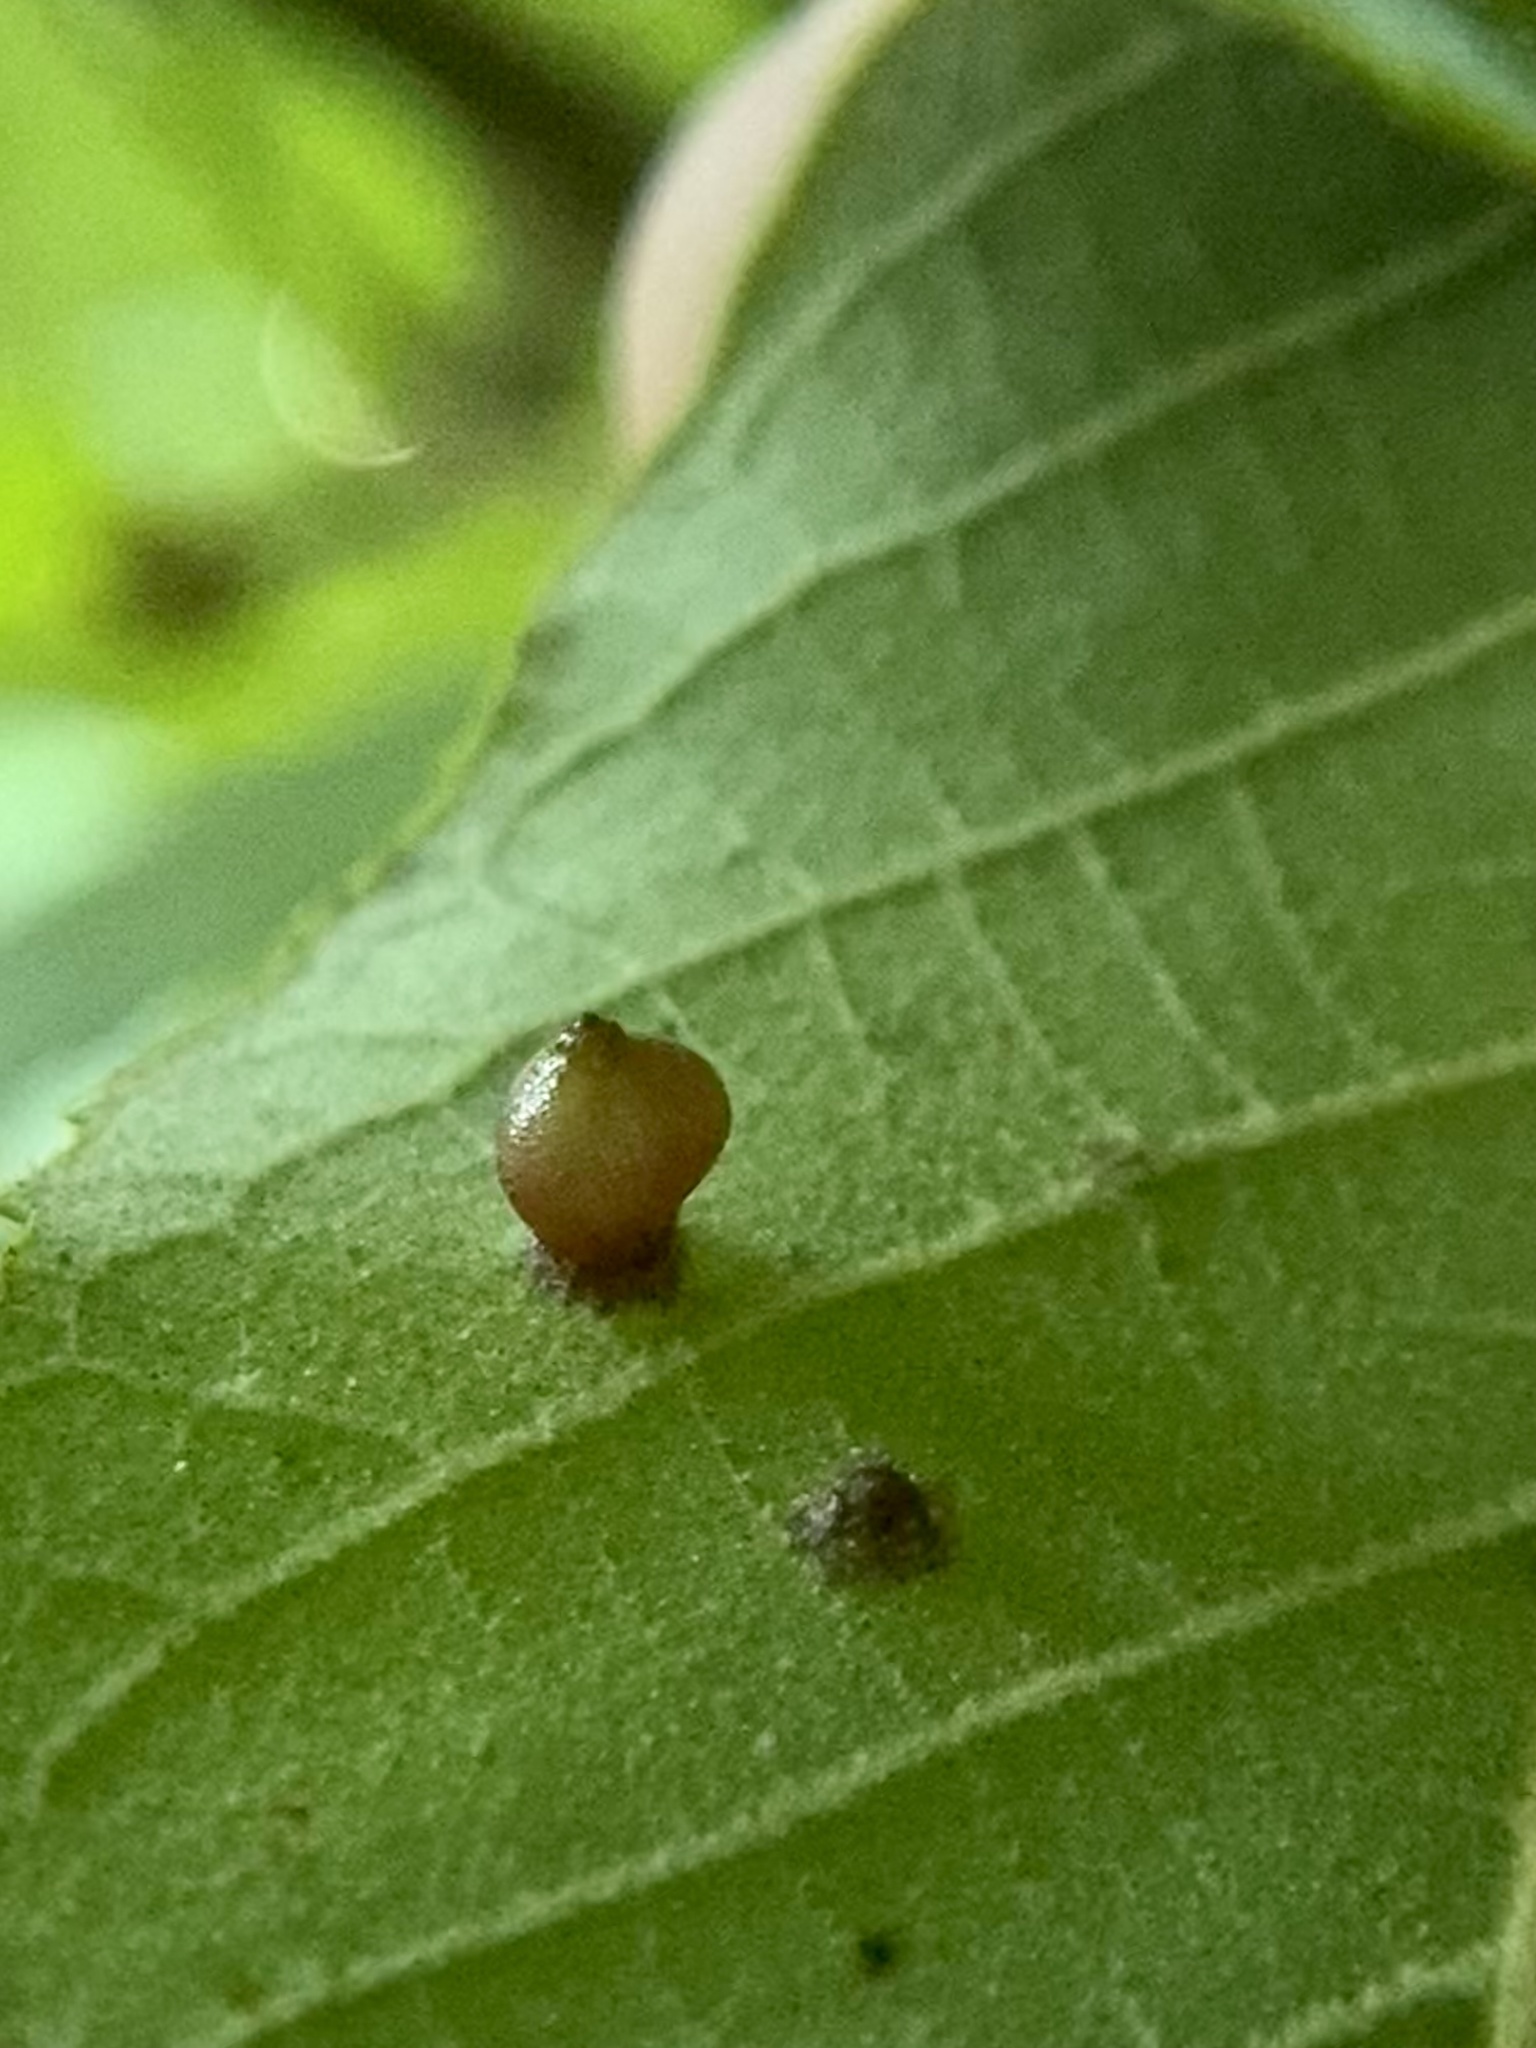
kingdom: Animalia
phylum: Arthropoda
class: Insecta
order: Diptera
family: Cecidomyiidae
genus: Caryomyia
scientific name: Caryomyia caryae
